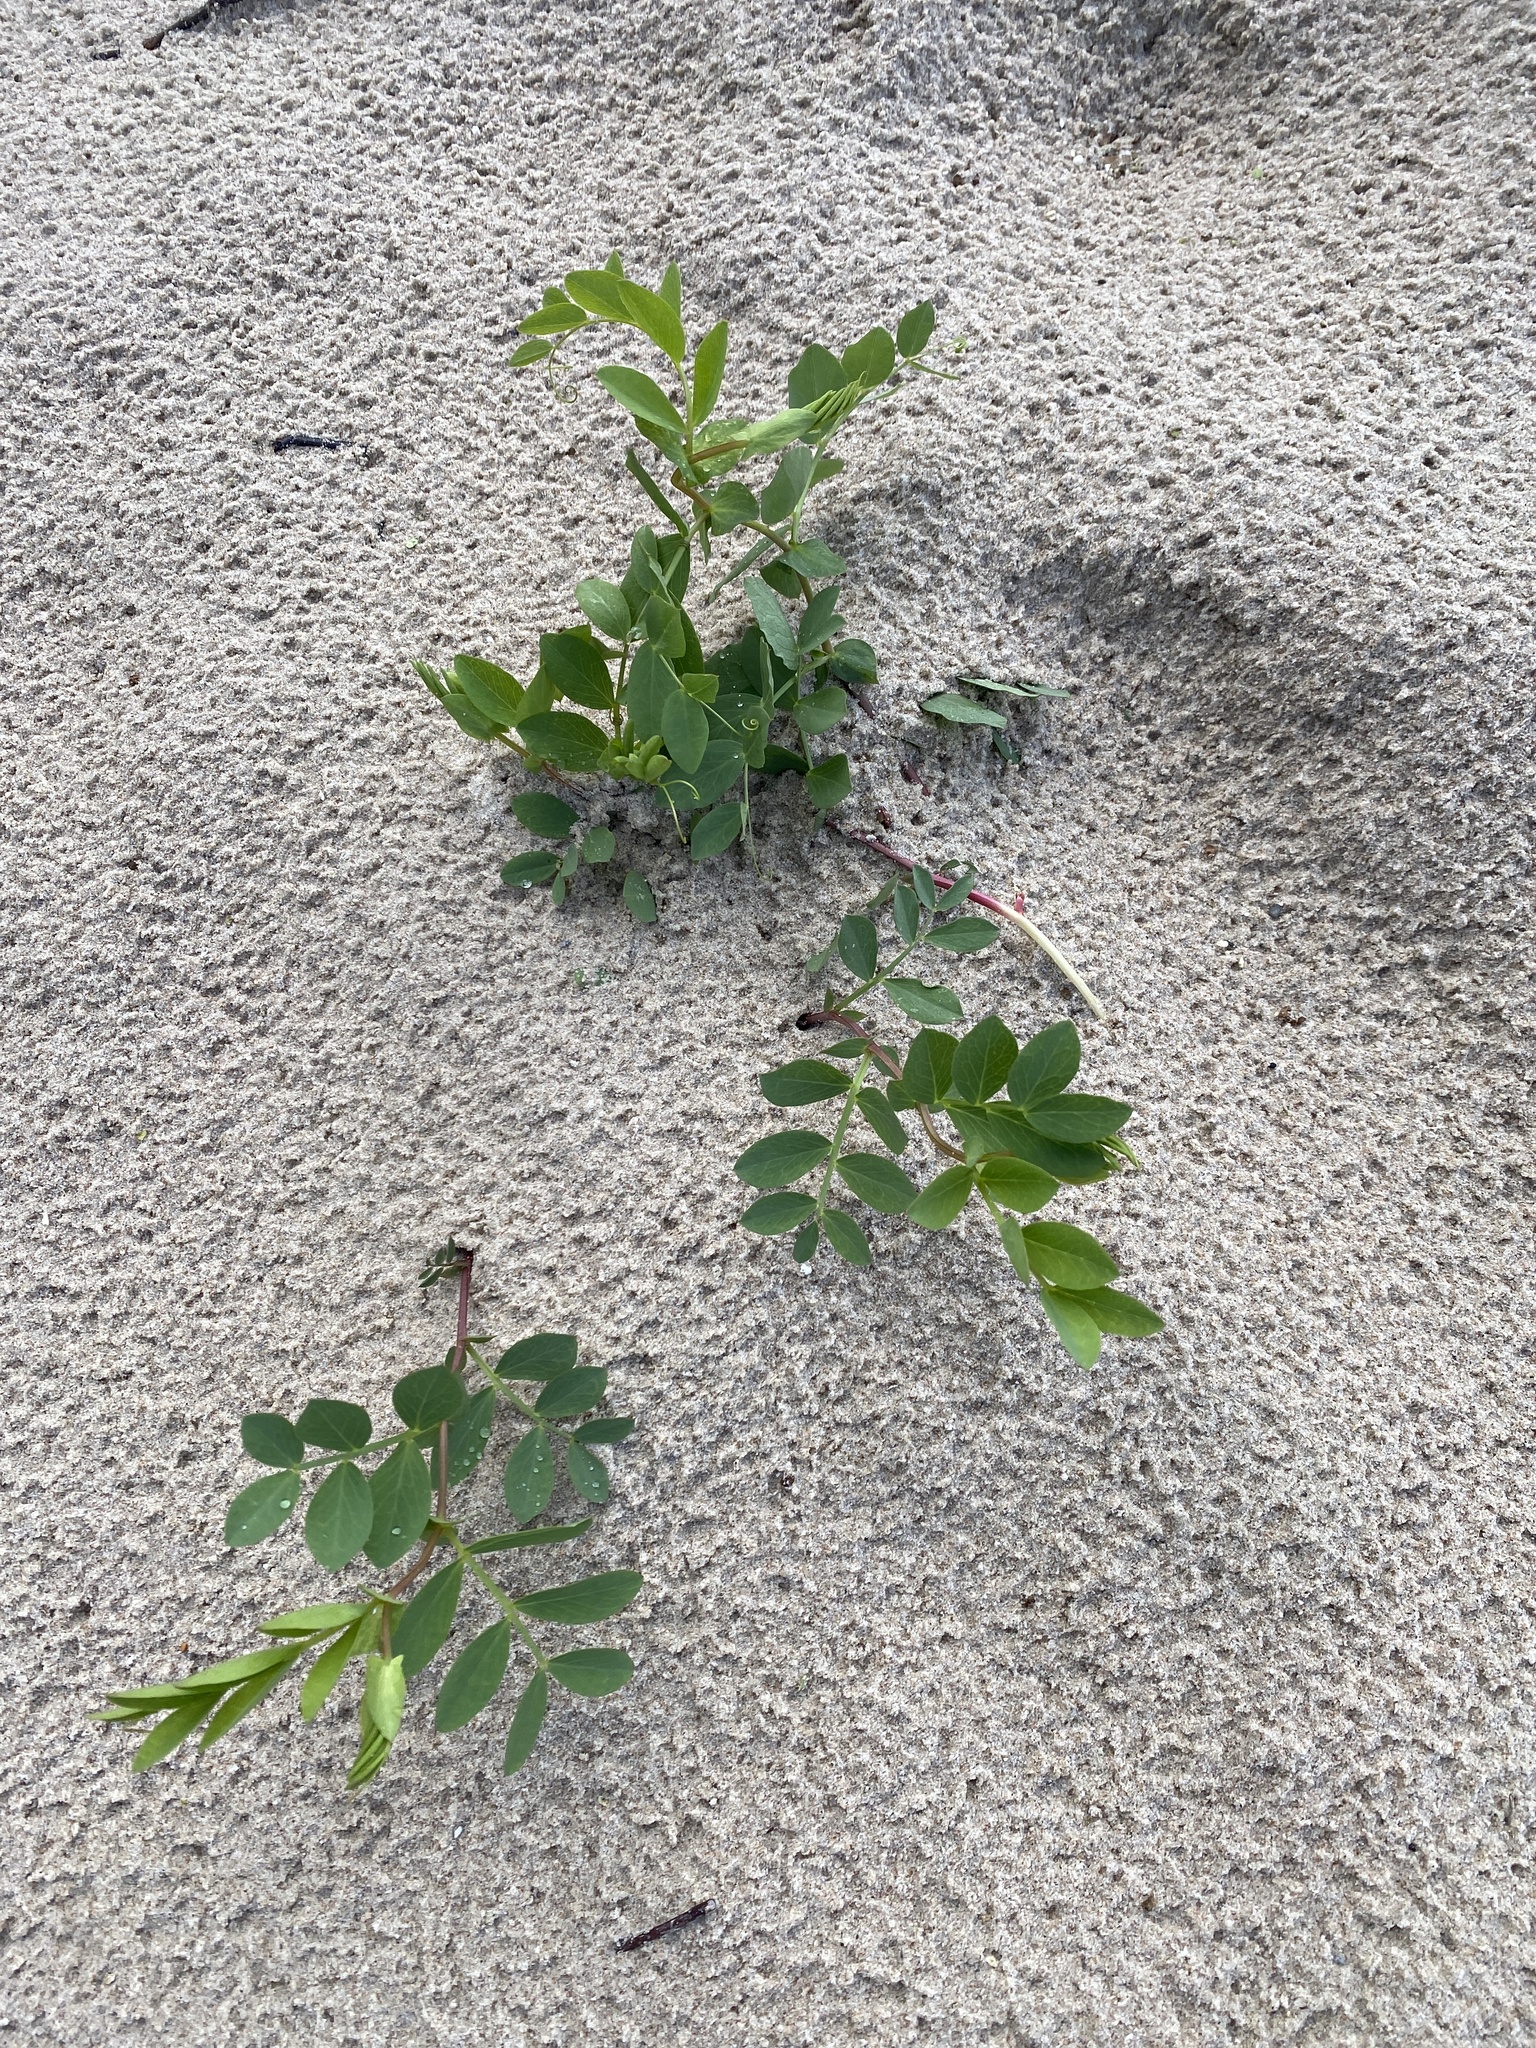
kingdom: Plantae
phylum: Tracheophyta
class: Magnoliopsida
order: Fabales
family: Fabaceae
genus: Lathyrus
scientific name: Lathyrus japonicus
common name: Sea pea
